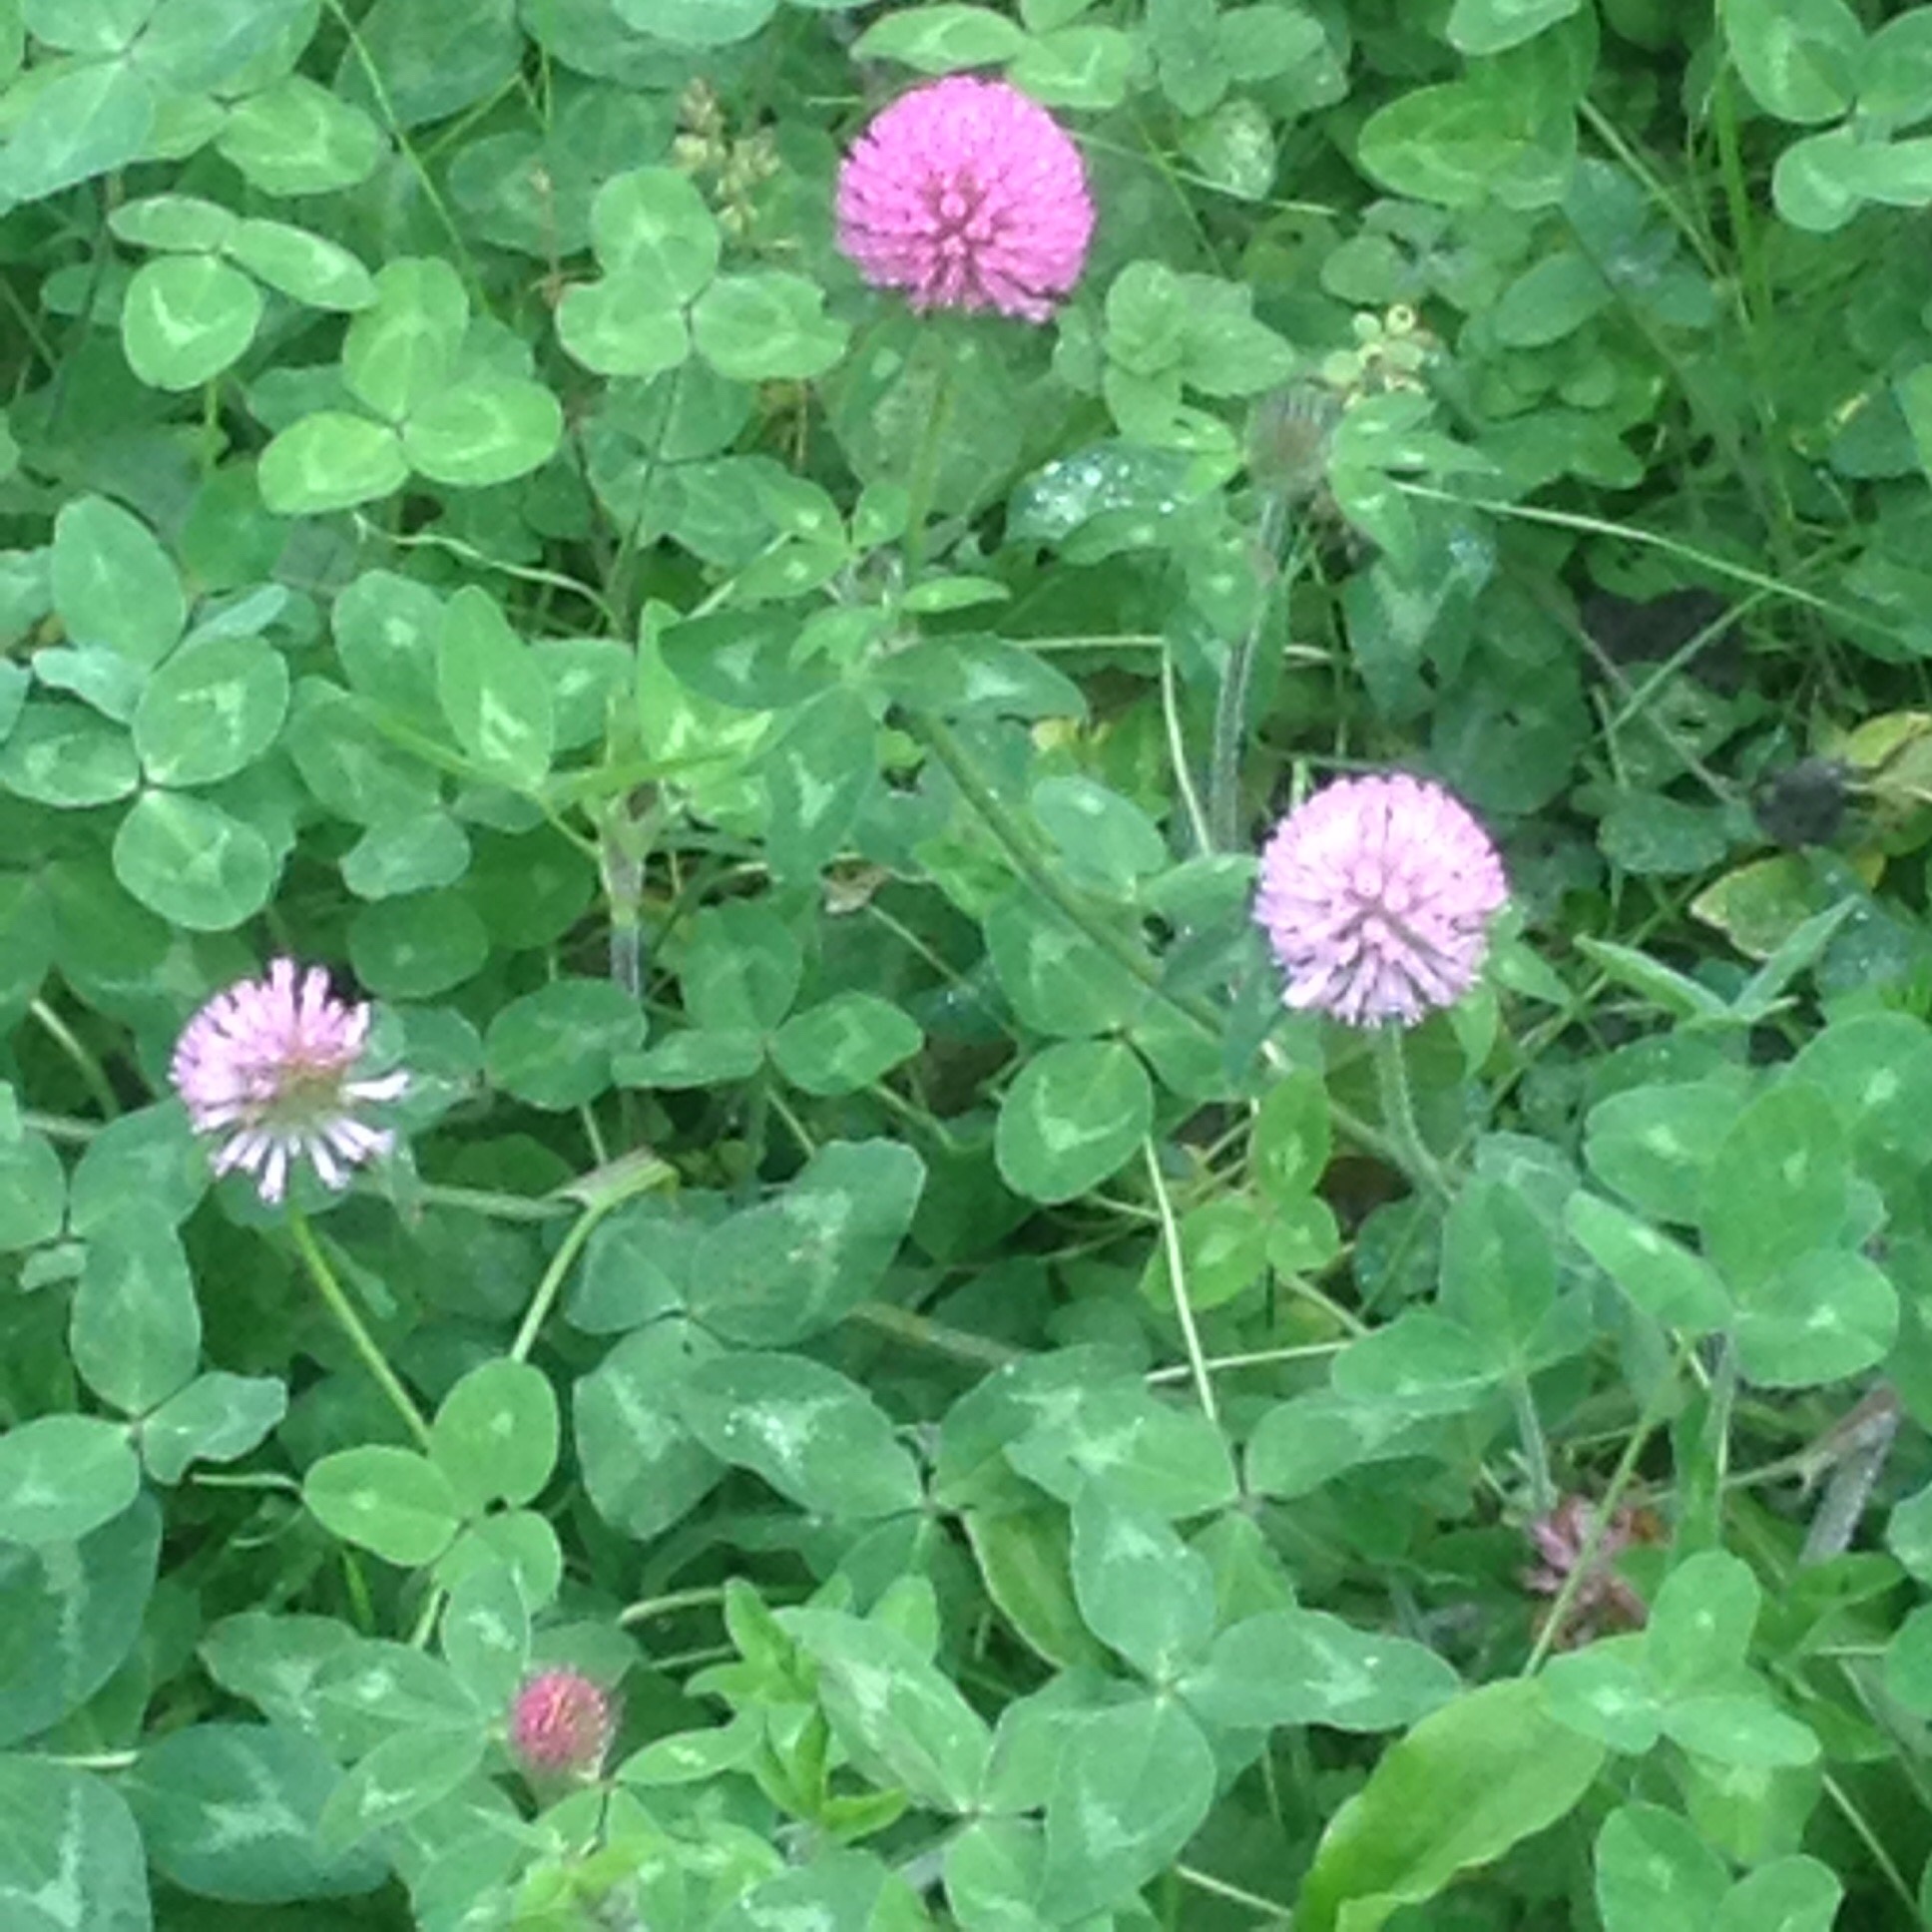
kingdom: Plantae
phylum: Tracheophyta
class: Magnoliopsida
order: Fabales
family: Fabaceae
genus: Trifolium
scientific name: Trifolium pratense
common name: Red clover
